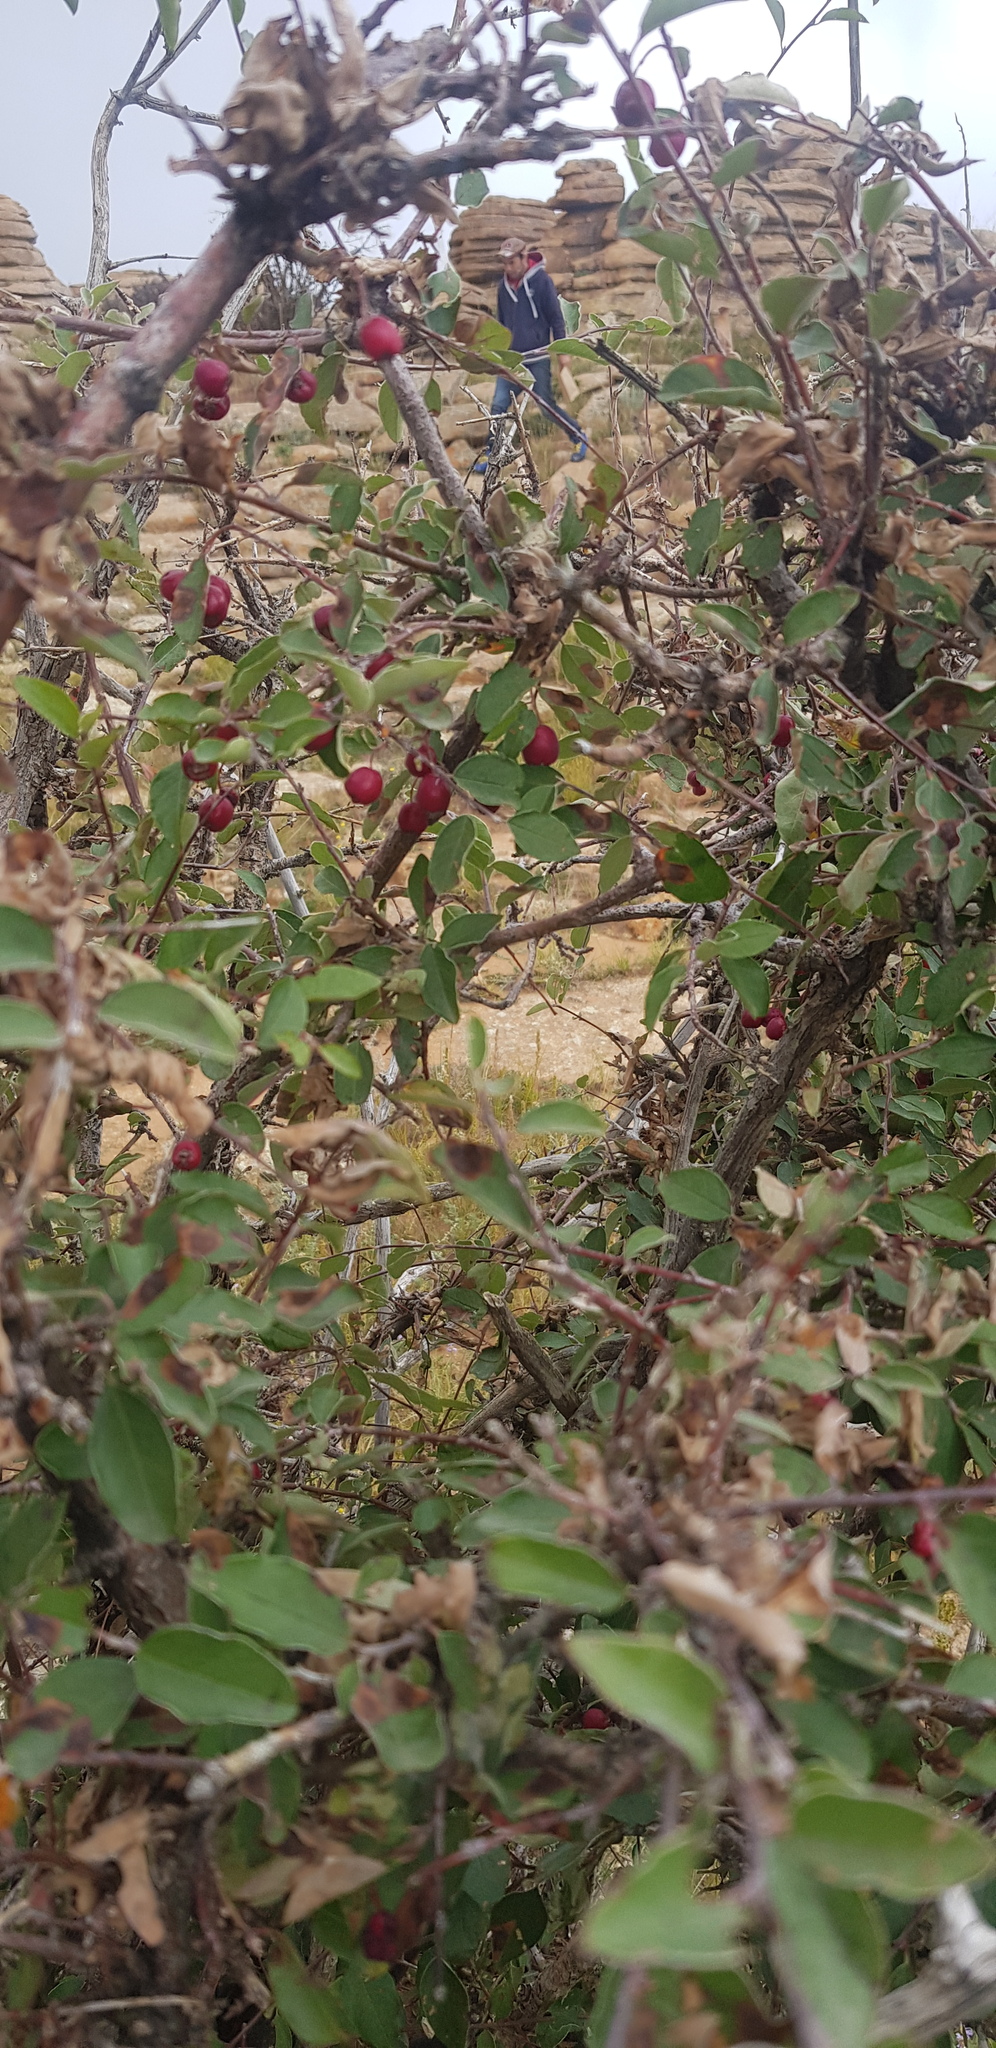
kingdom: Plantae
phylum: Tracheophyta
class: Magnoliopsida
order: Rosales
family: Rosaceae
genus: Cotoneaster
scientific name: Cotoneaster melanocarpus
